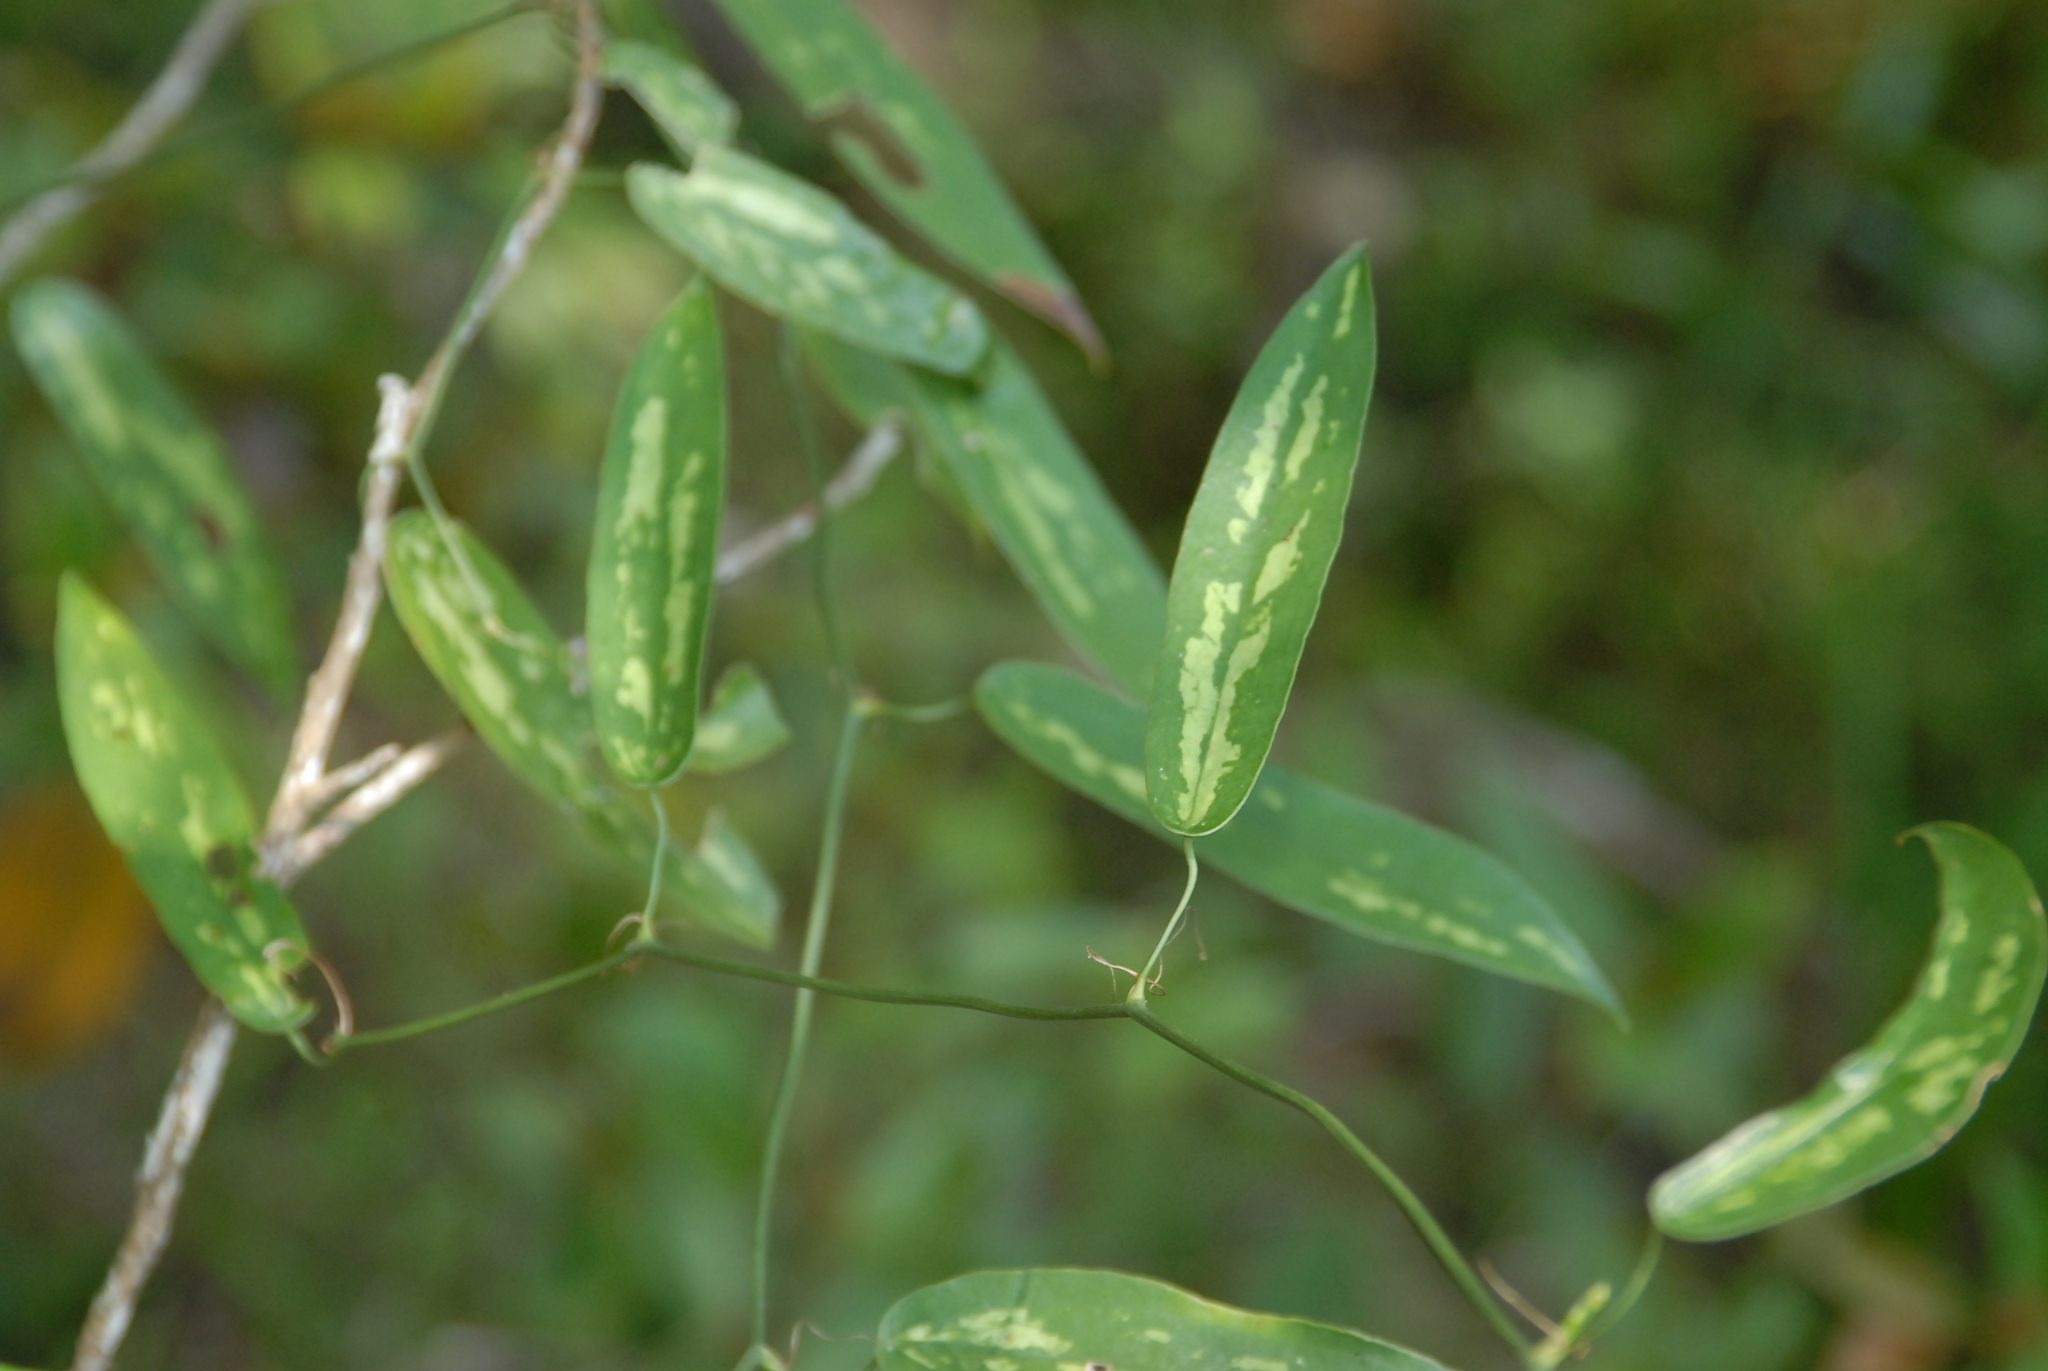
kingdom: Plantae
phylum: Tracheophyta
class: Liliopsida
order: Liliales
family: Smilacaceae
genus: Smilax
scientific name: Smilax luei
